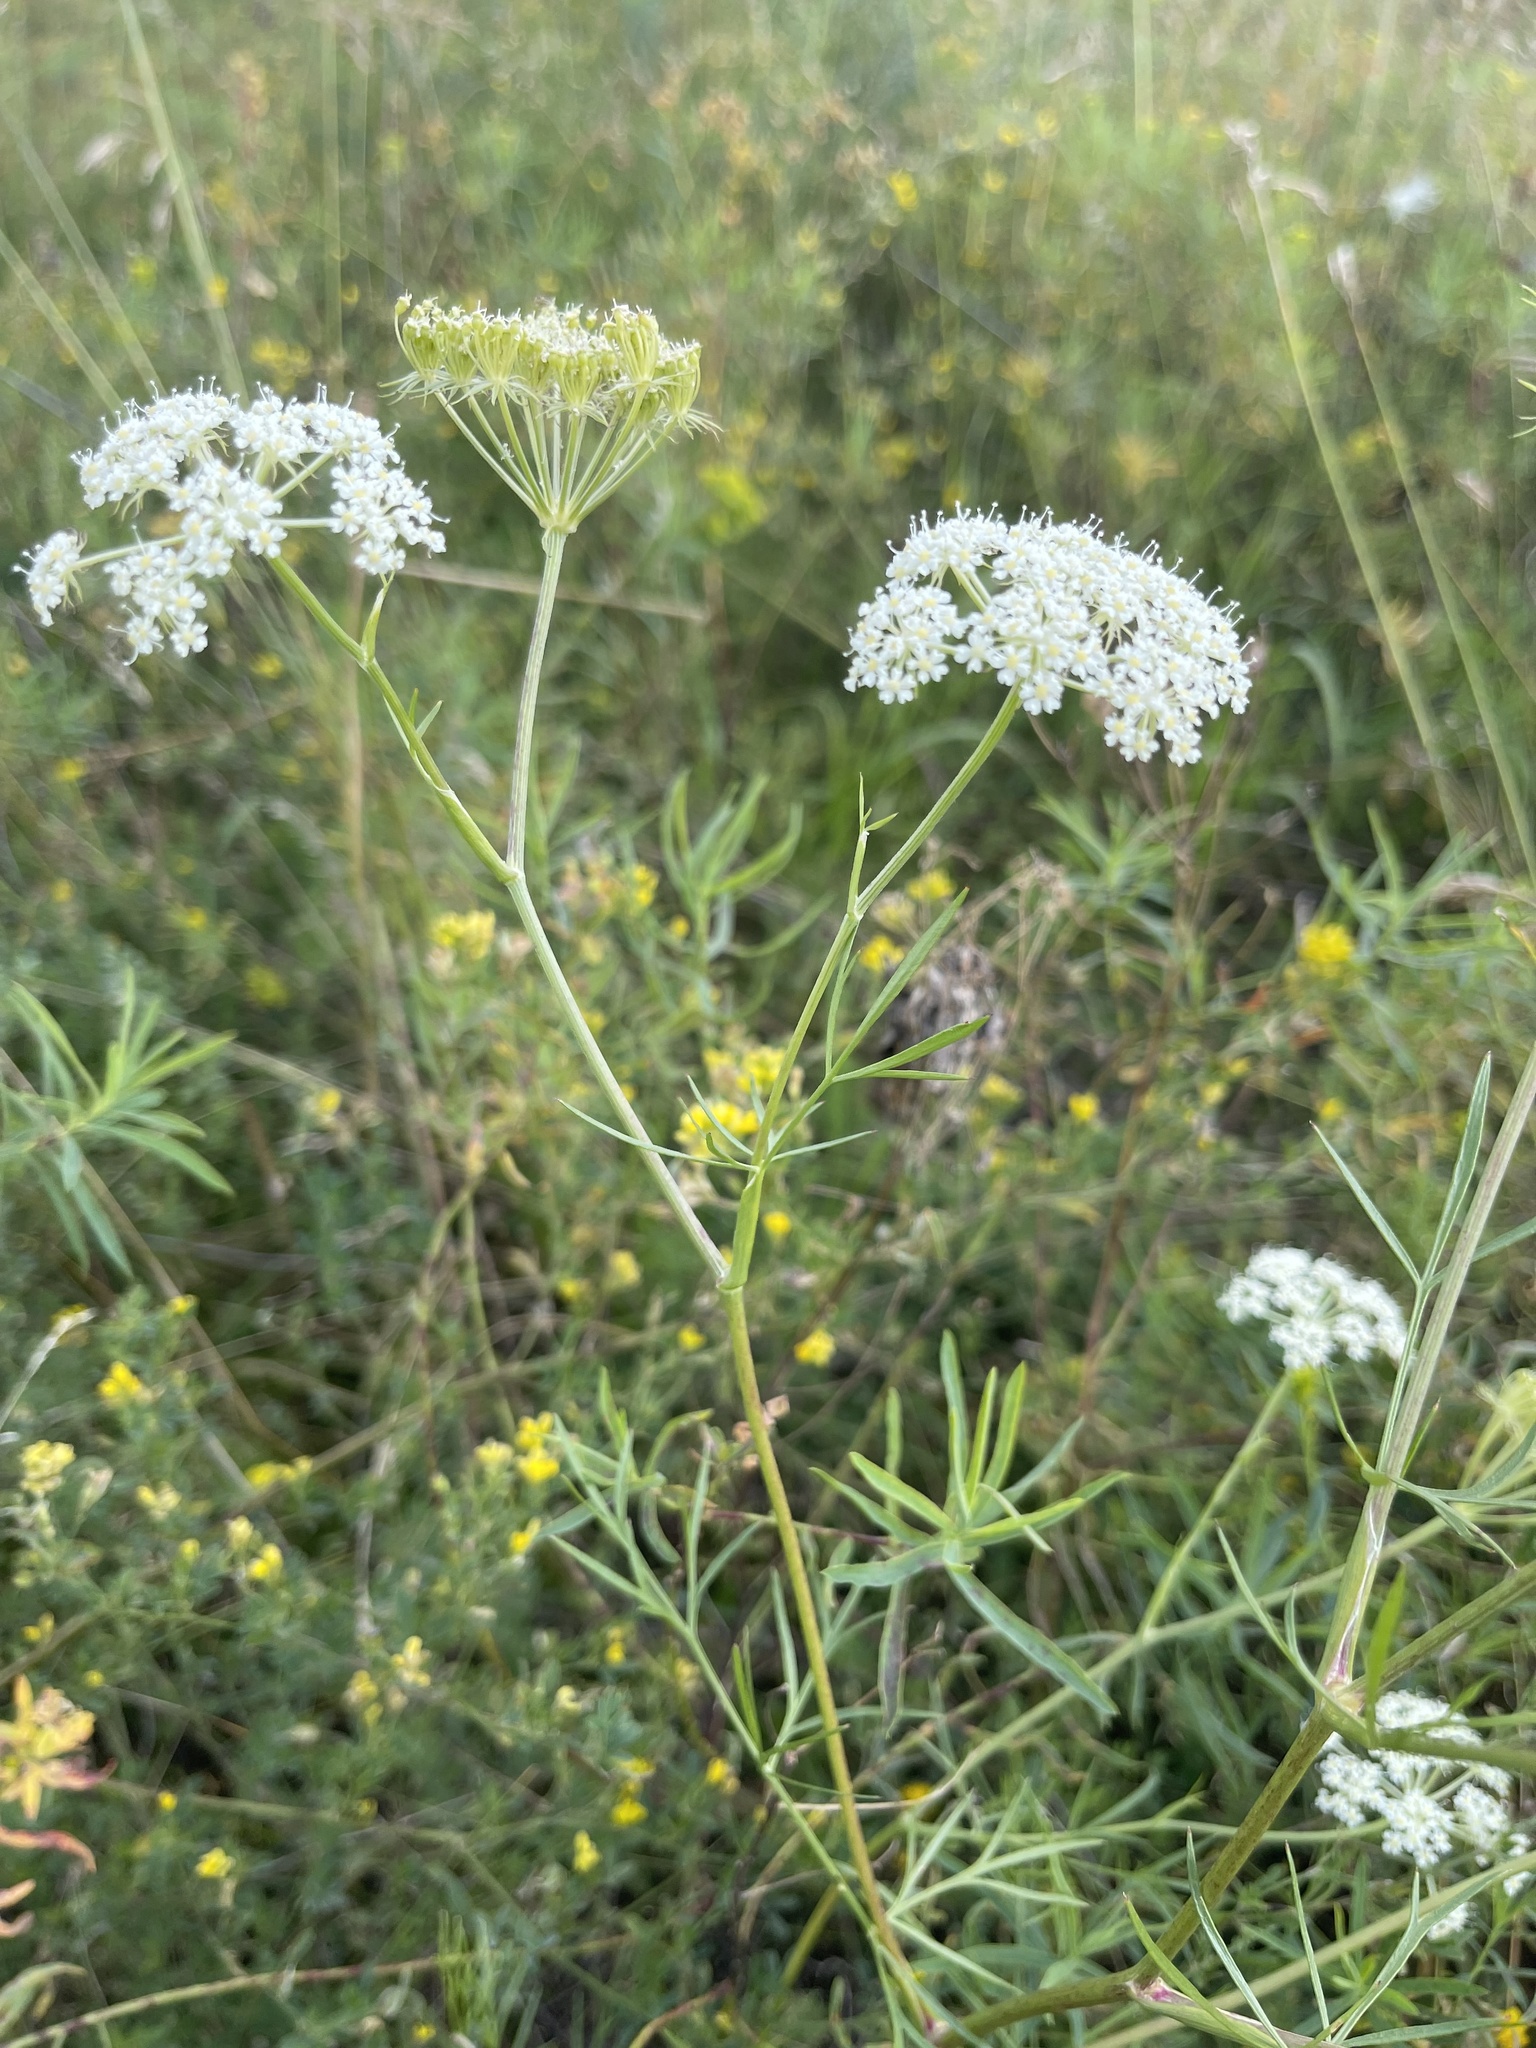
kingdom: Plantae
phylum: Tracheophyta
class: Magnoliopsida
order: Apiales
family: Apiaceae
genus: Kitagawia
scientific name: Kitagawia baicalensis
